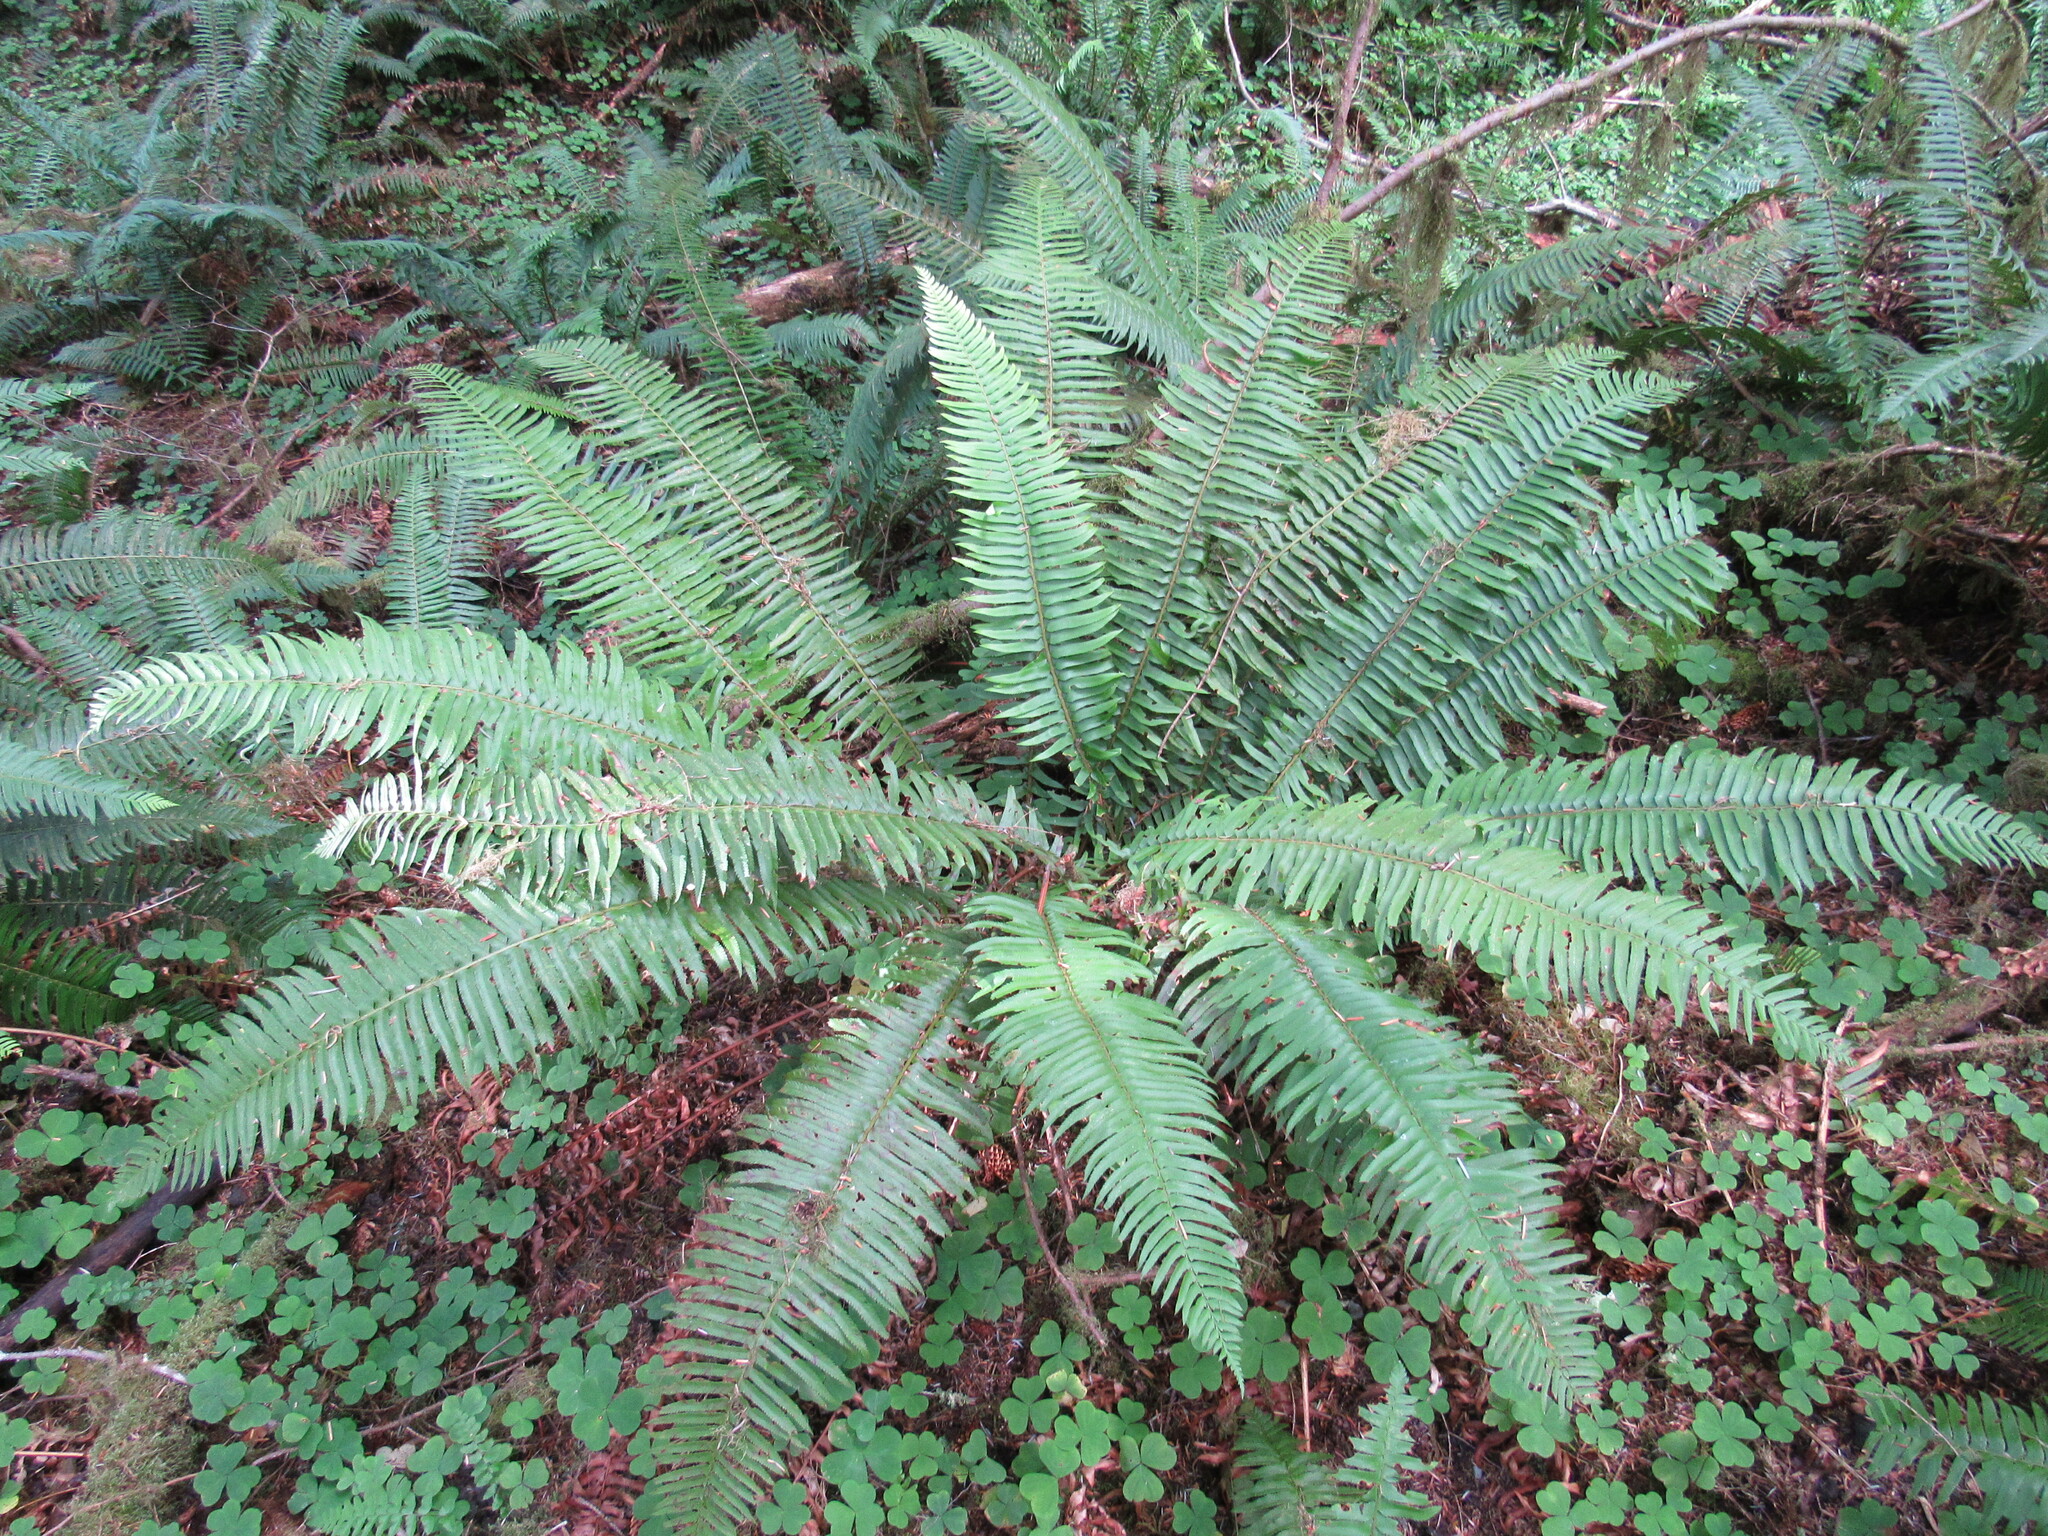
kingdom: Plantae
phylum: Tracheophyta
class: Polypodiopsida
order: Polypodiales
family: Dryopteridaceae
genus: Polystichum
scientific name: Polystichum munitum
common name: Western sword-fern
